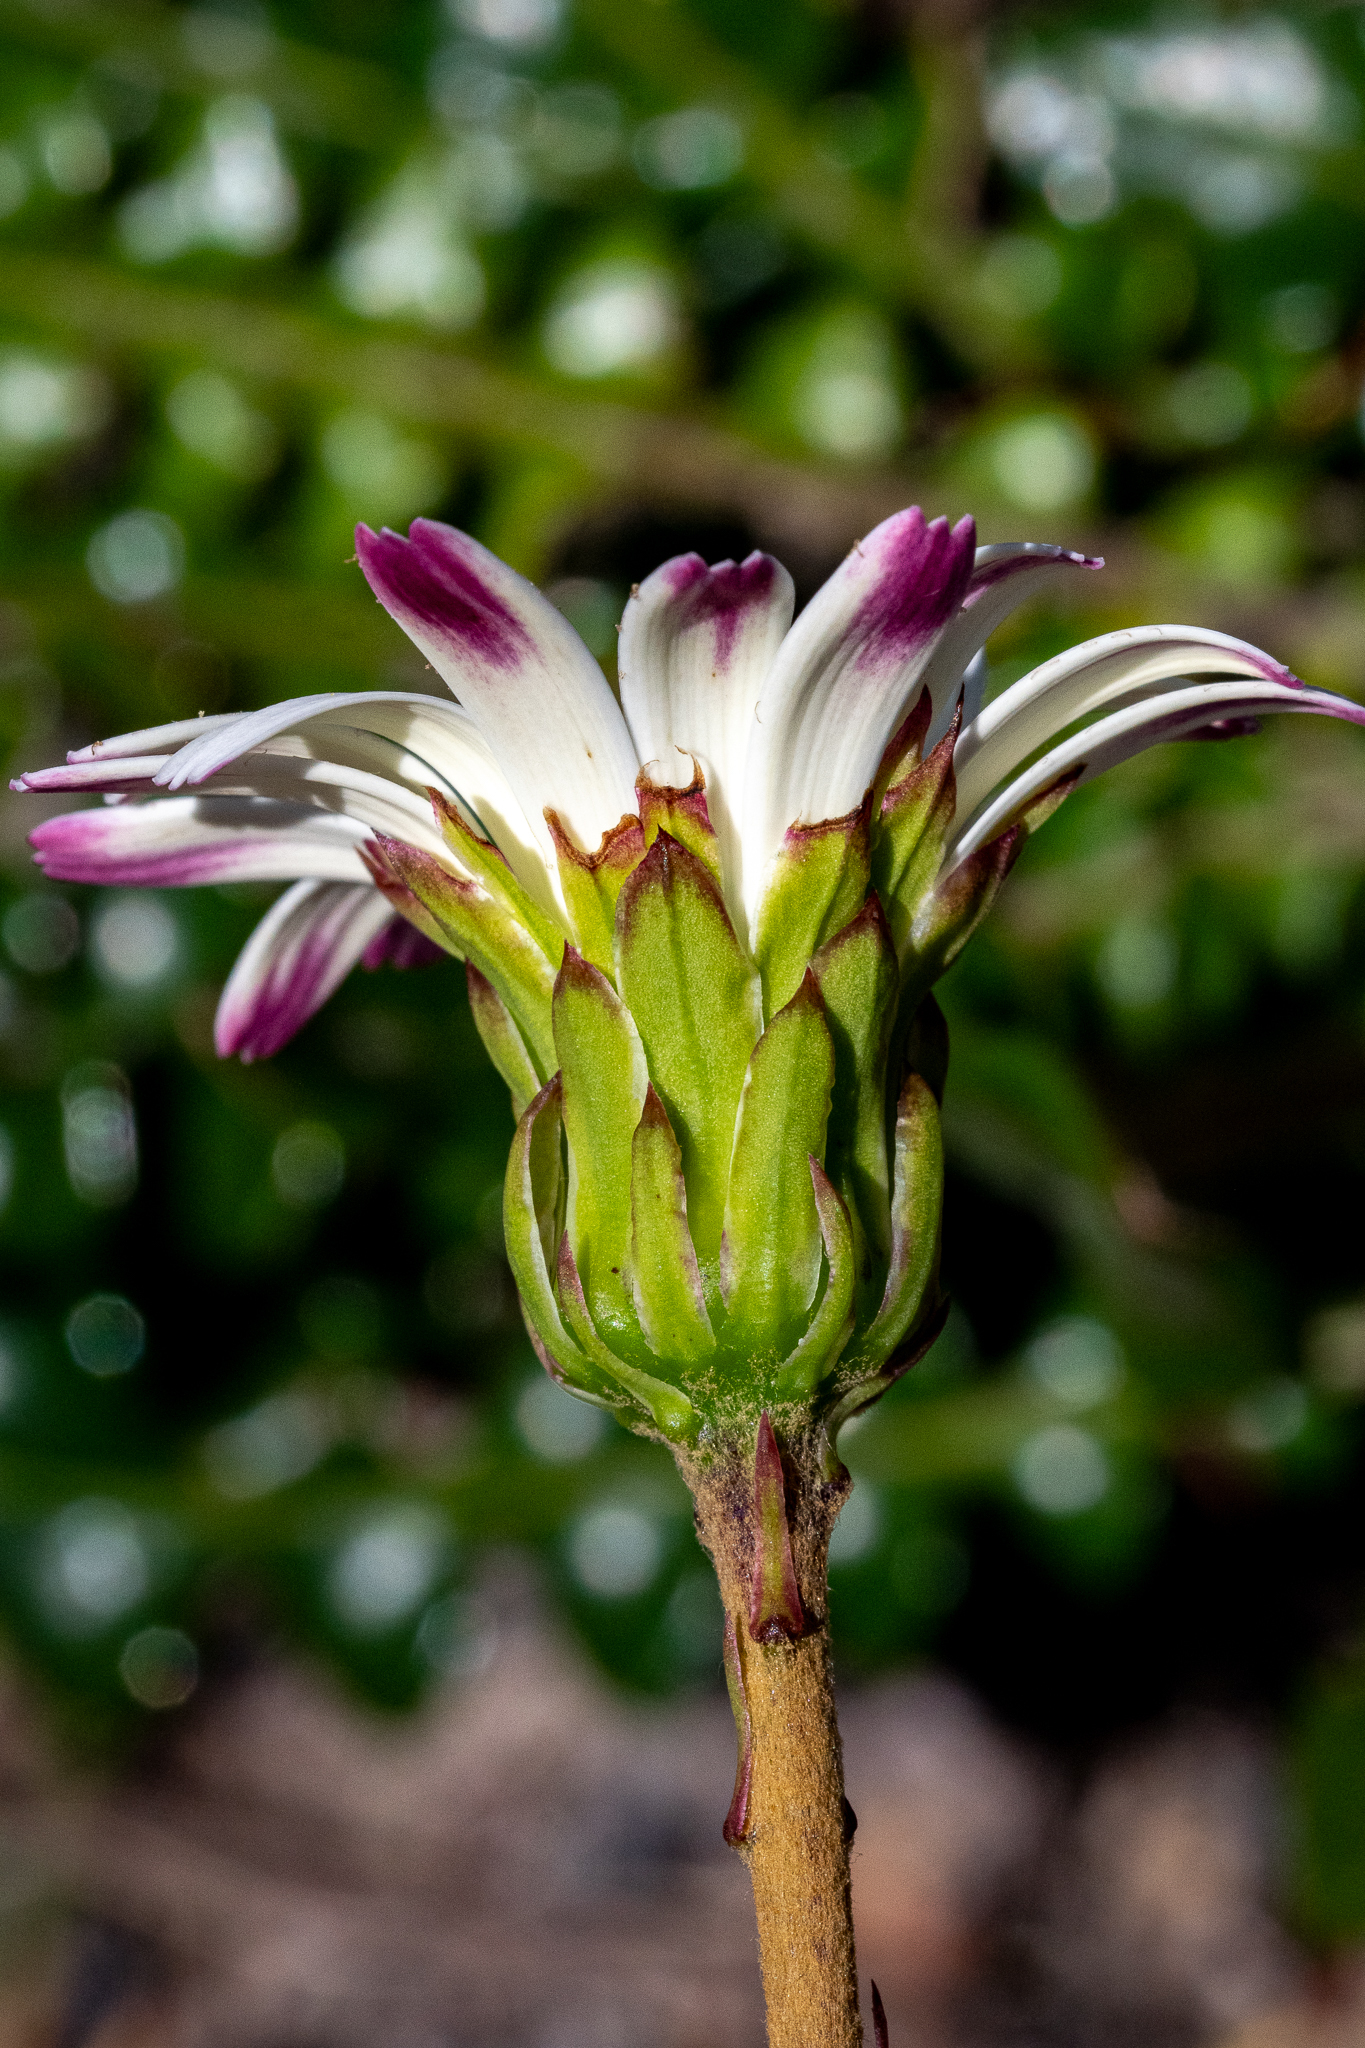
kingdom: Plantae
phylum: Tracheophyta
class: Magnoliopsida
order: Asterales
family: Asteraceae
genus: Gerbera
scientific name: Gerbera linnaei
